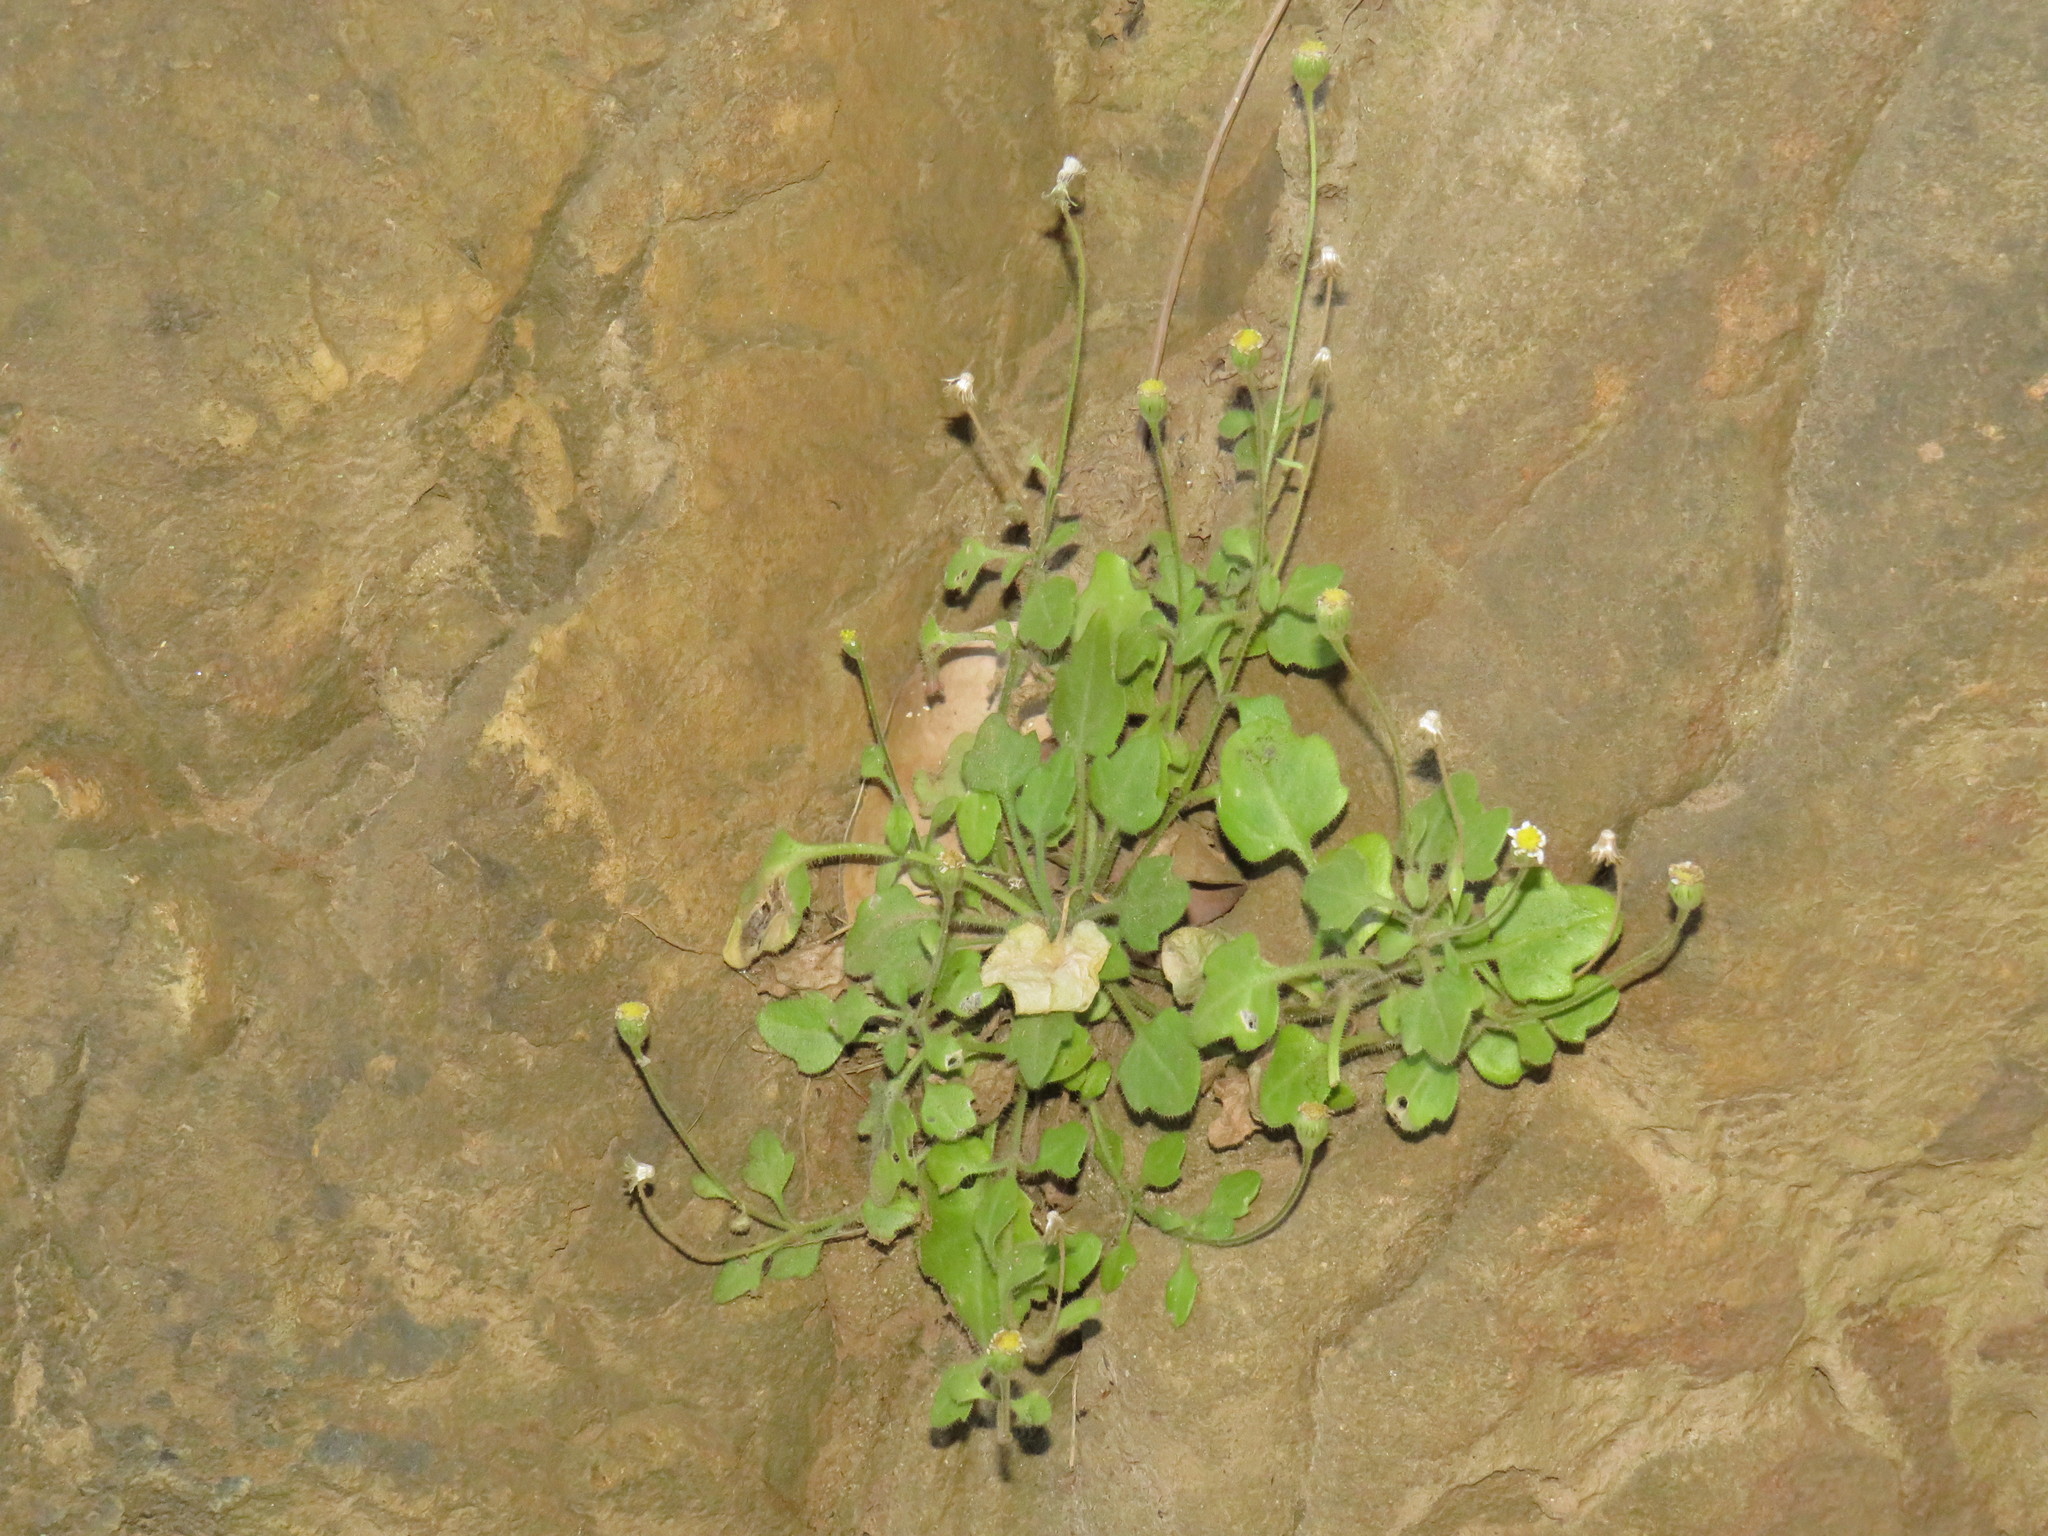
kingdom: Plantae
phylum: Tracheophyta
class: Magnoliopsida
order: Asterales
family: Asteraceae
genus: Felicia
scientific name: Felicia cymbalariae
